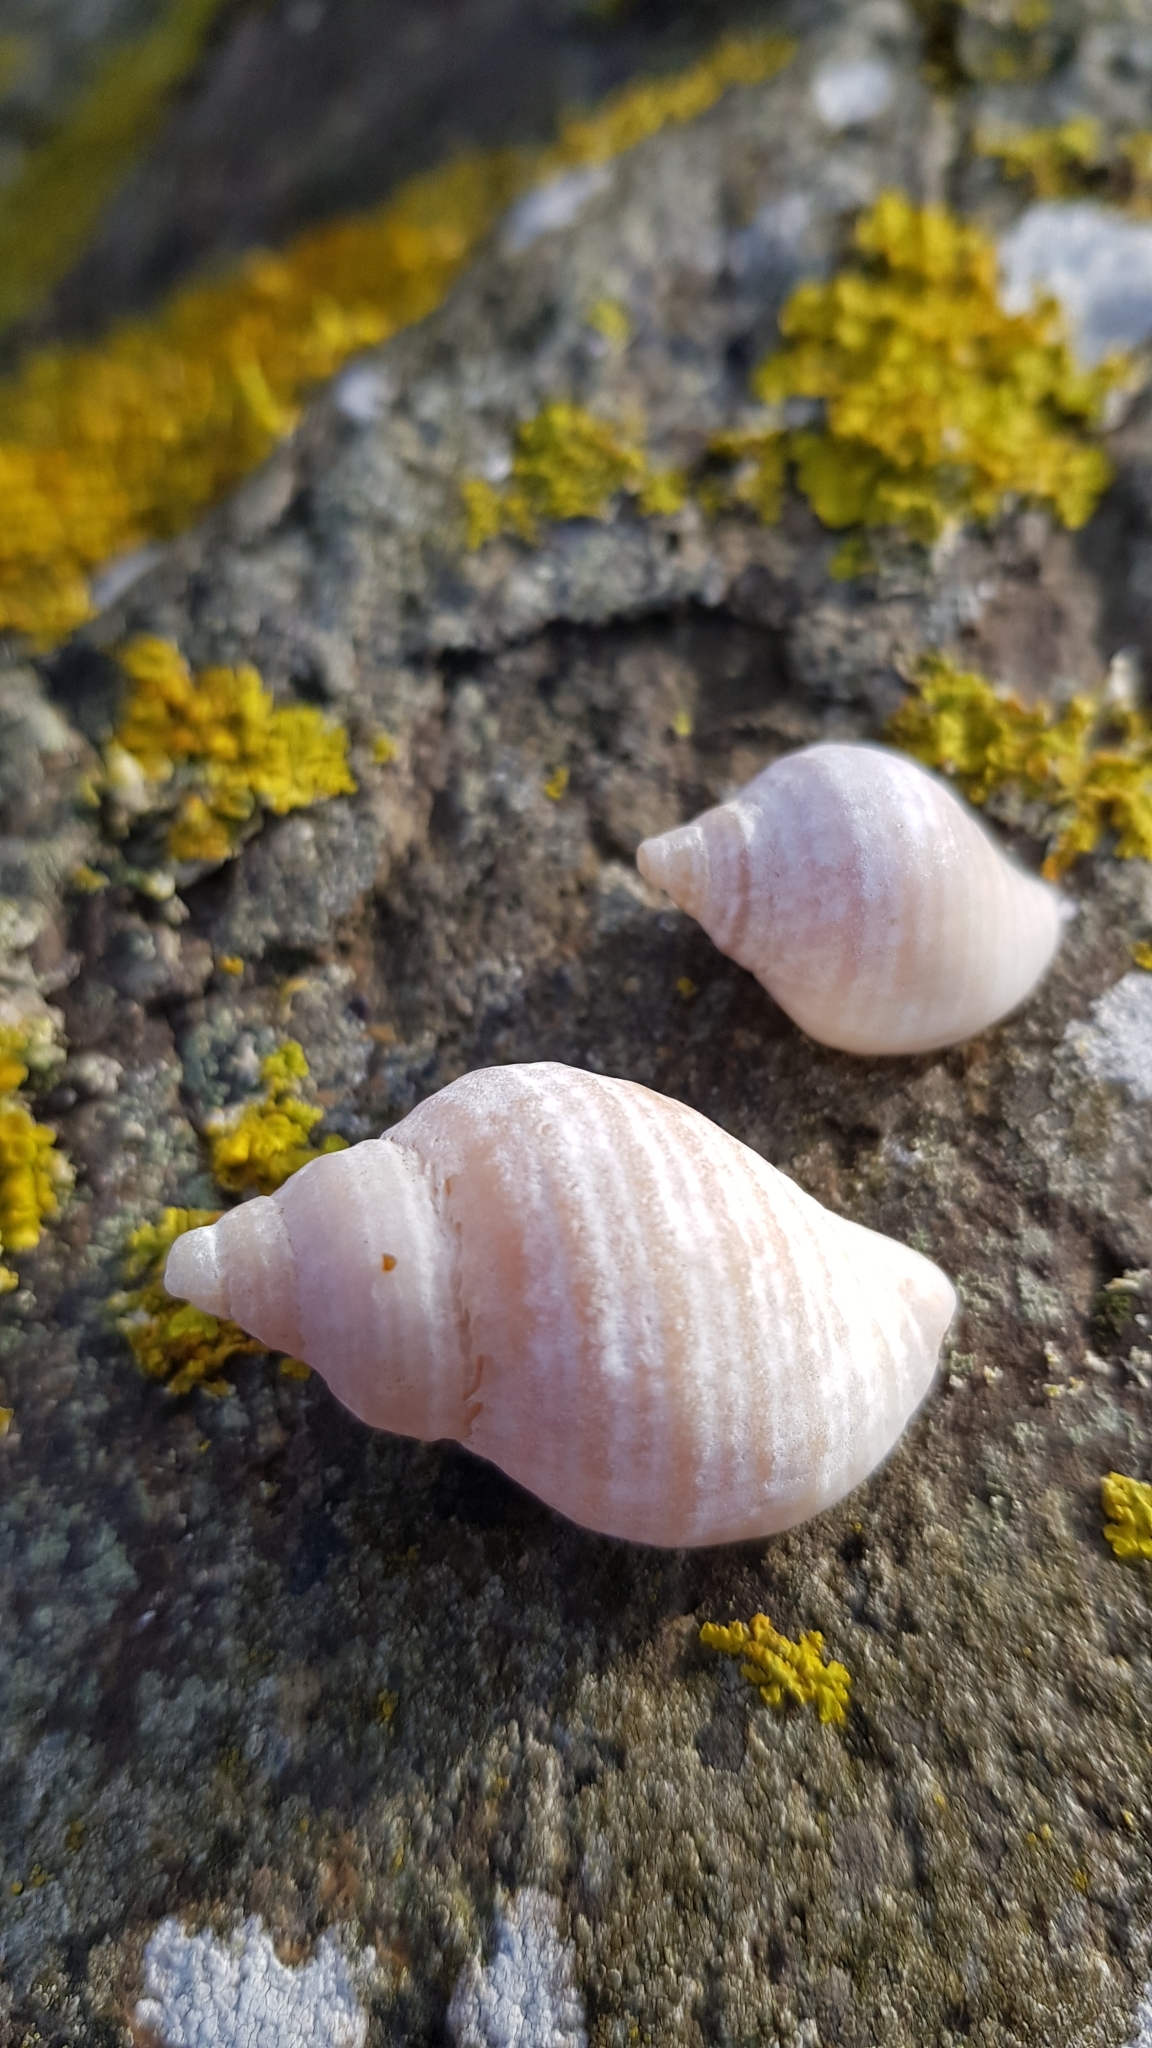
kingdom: Animalia
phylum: Mollusca
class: Gastropoda
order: Neogastropoda
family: Muricidae
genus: Nucella
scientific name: Nucella lapillus
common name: Dog whelk
